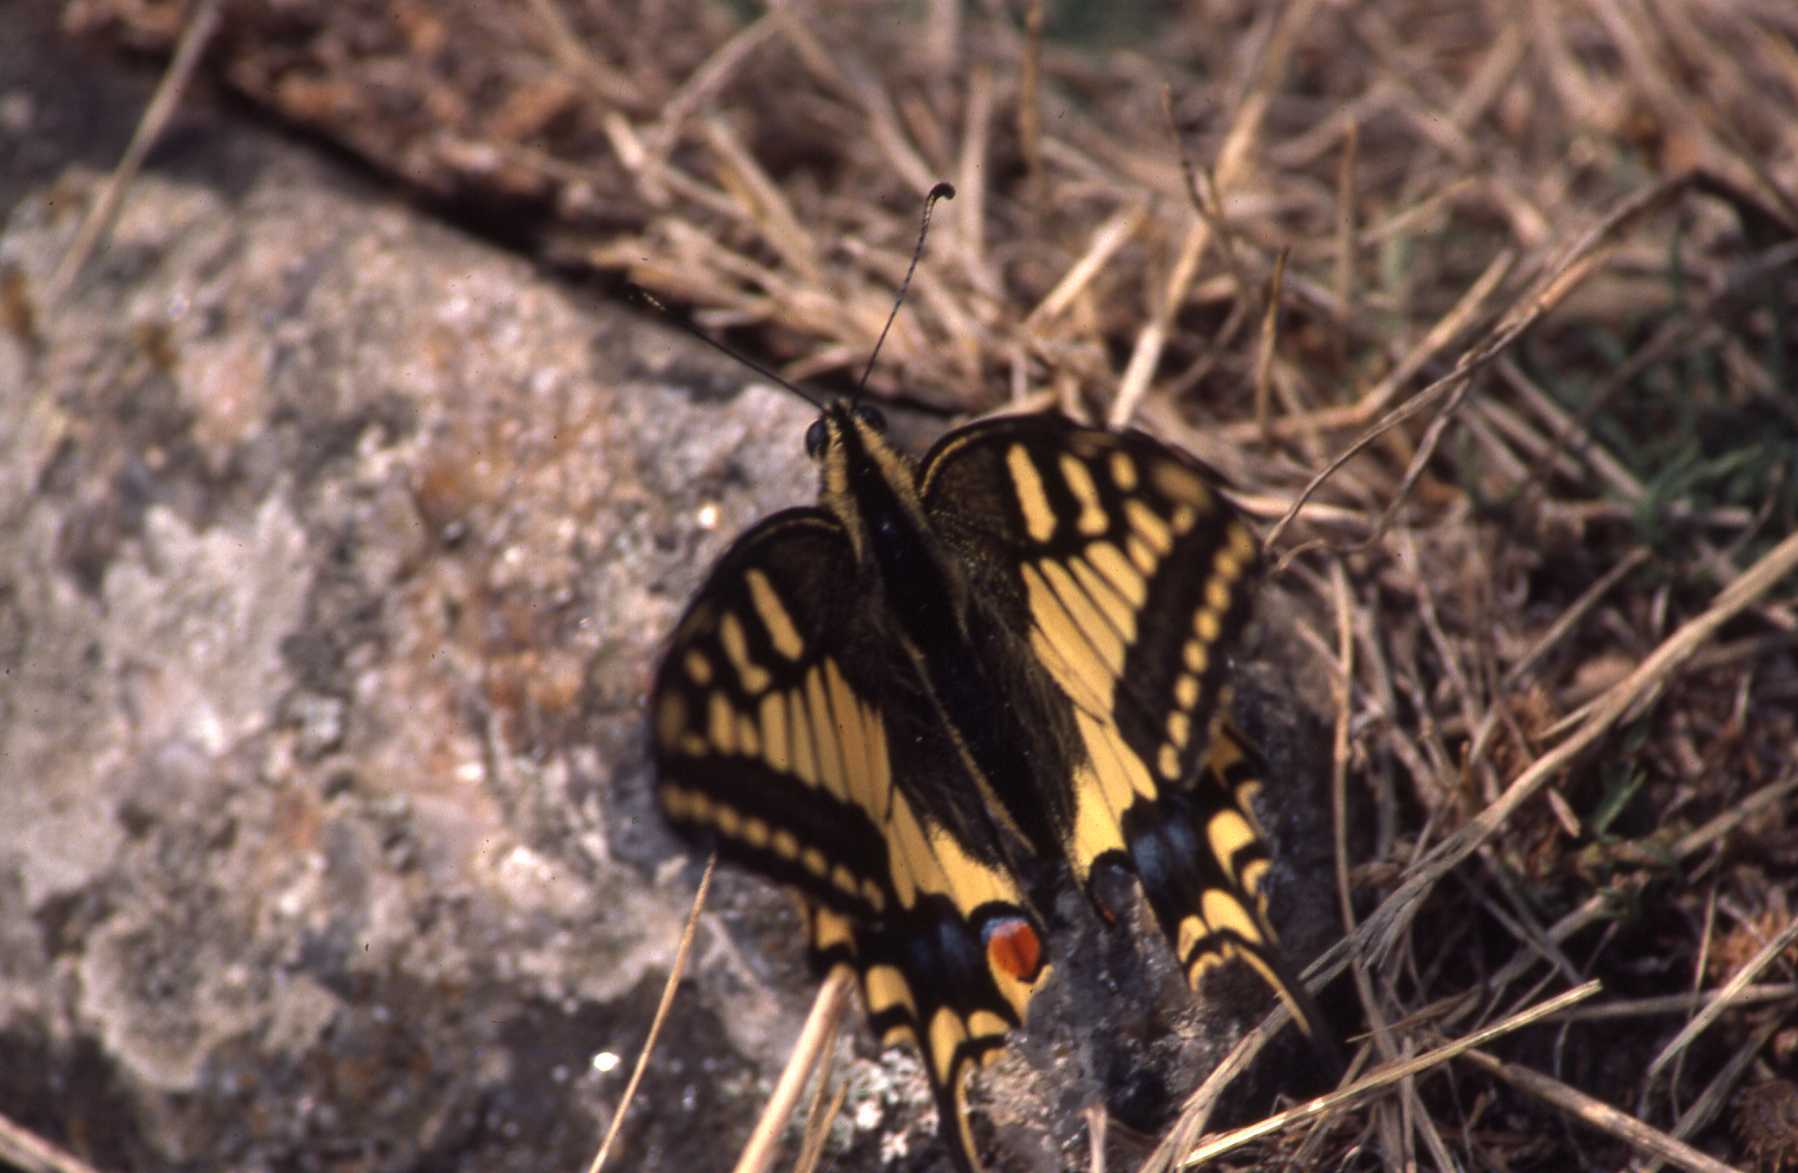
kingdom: Animalia
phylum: Arthropoda
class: Insecta
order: Lepidoptera
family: Papilionidae
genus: Papilio
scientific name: Papilio machaon
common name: Swallowtail
